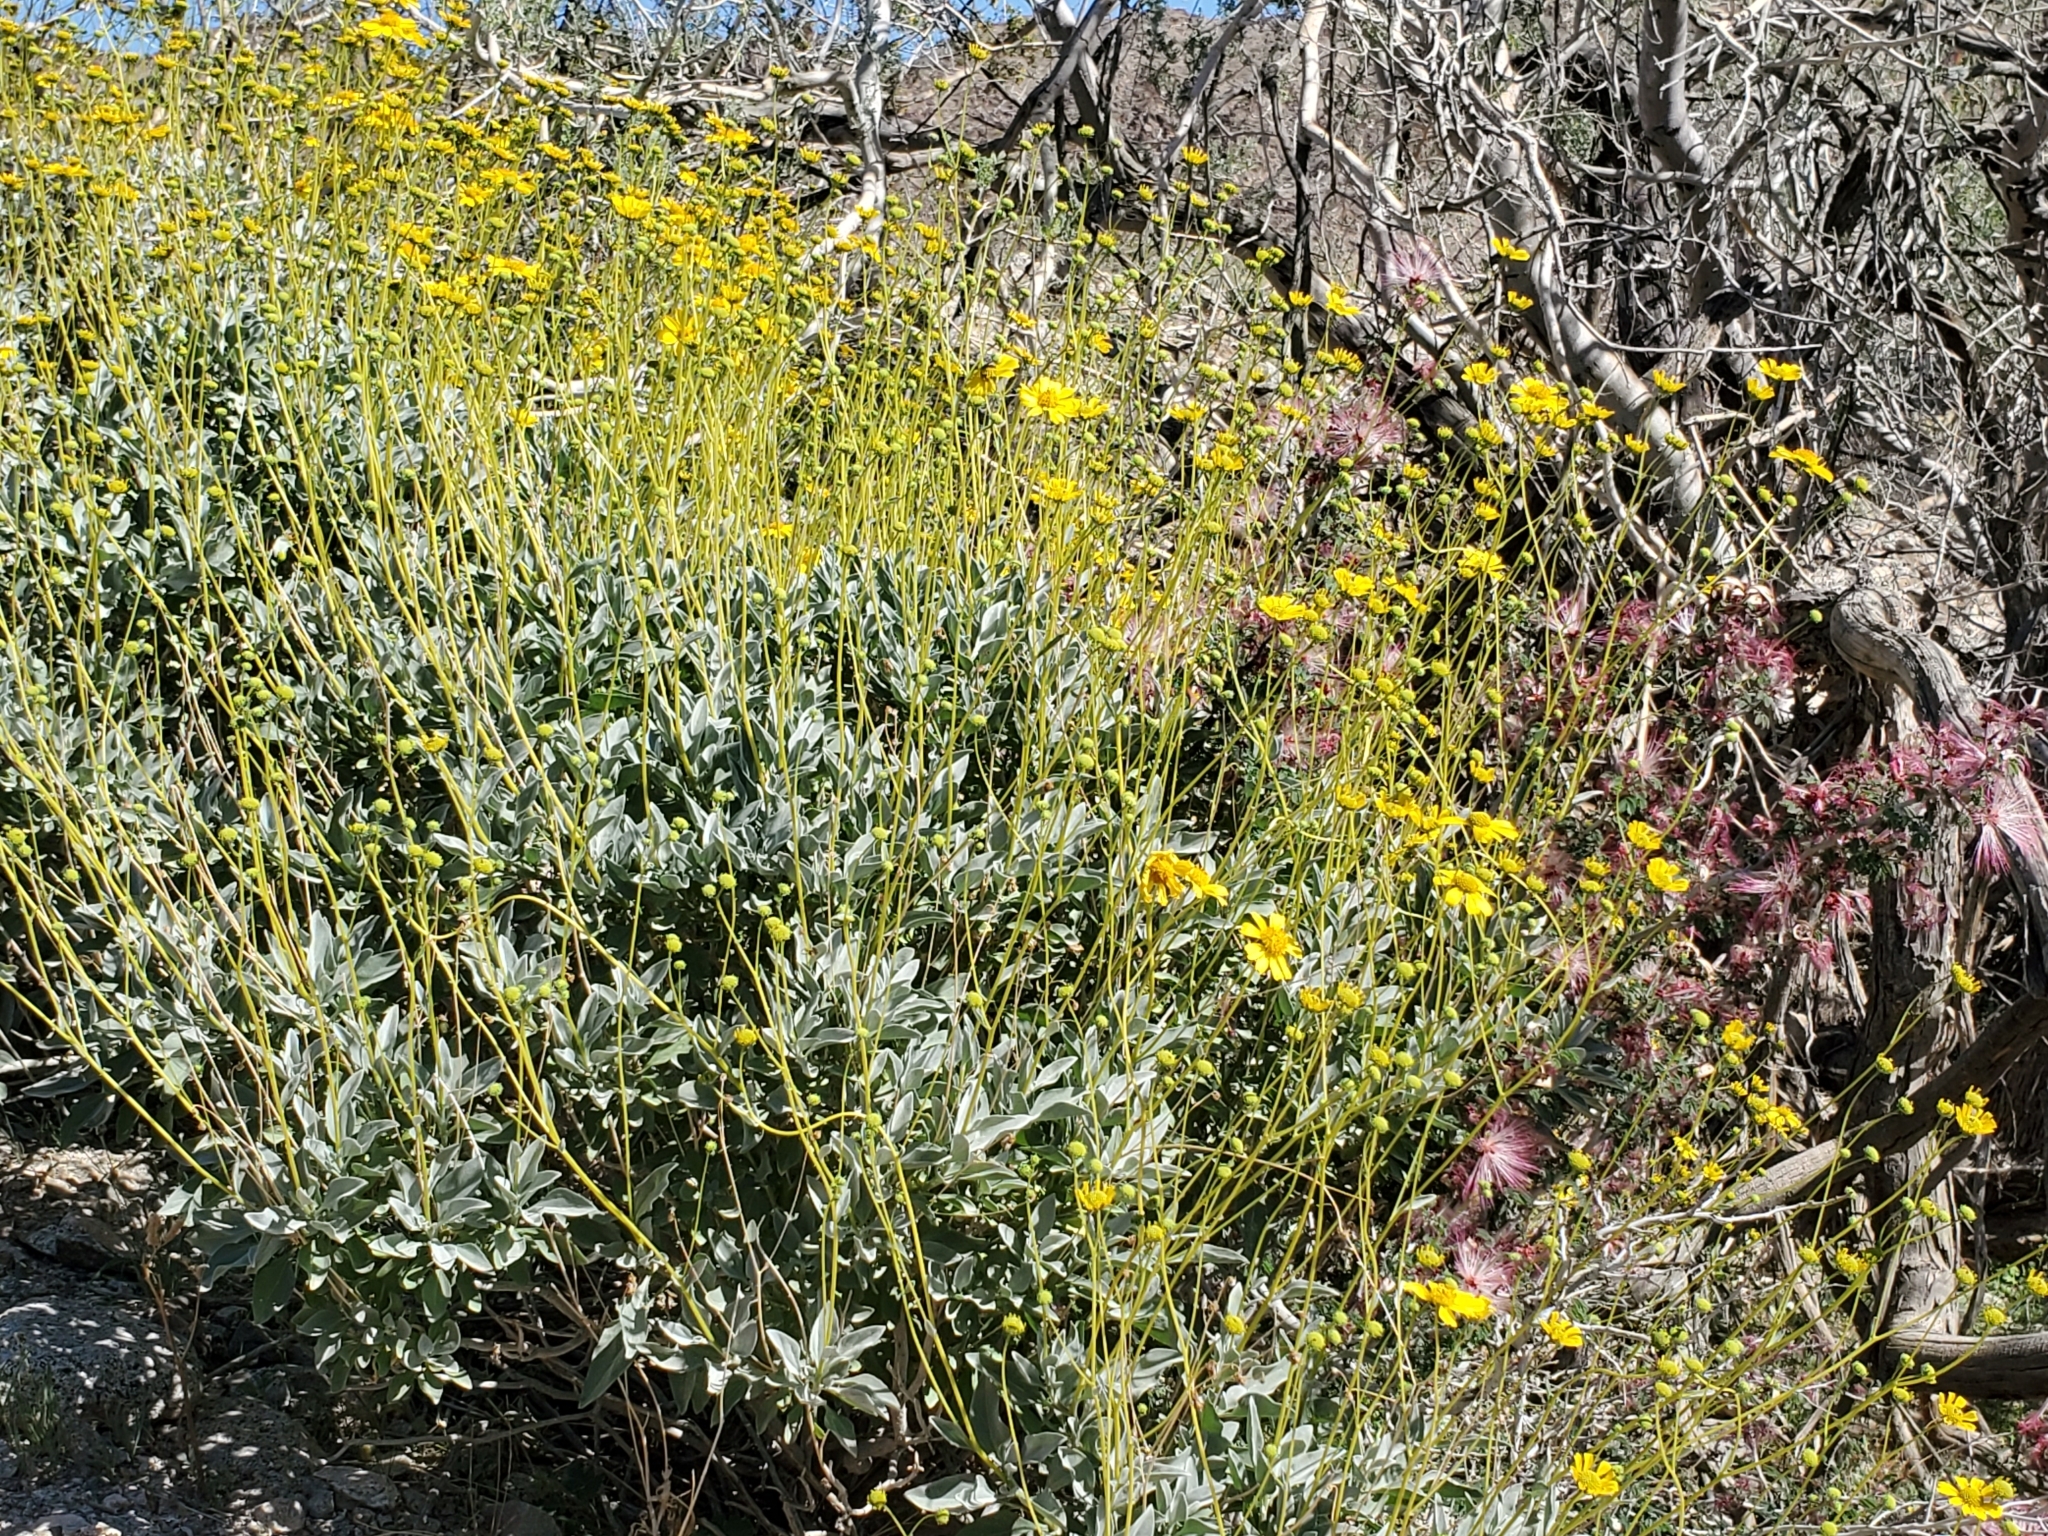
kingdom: Plantae
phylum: Tracheophyta
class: Magnoliopsida
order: Asterales
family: Asteraceae
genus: Encelia
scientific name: Encelia farinosa
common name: Brittlebush
